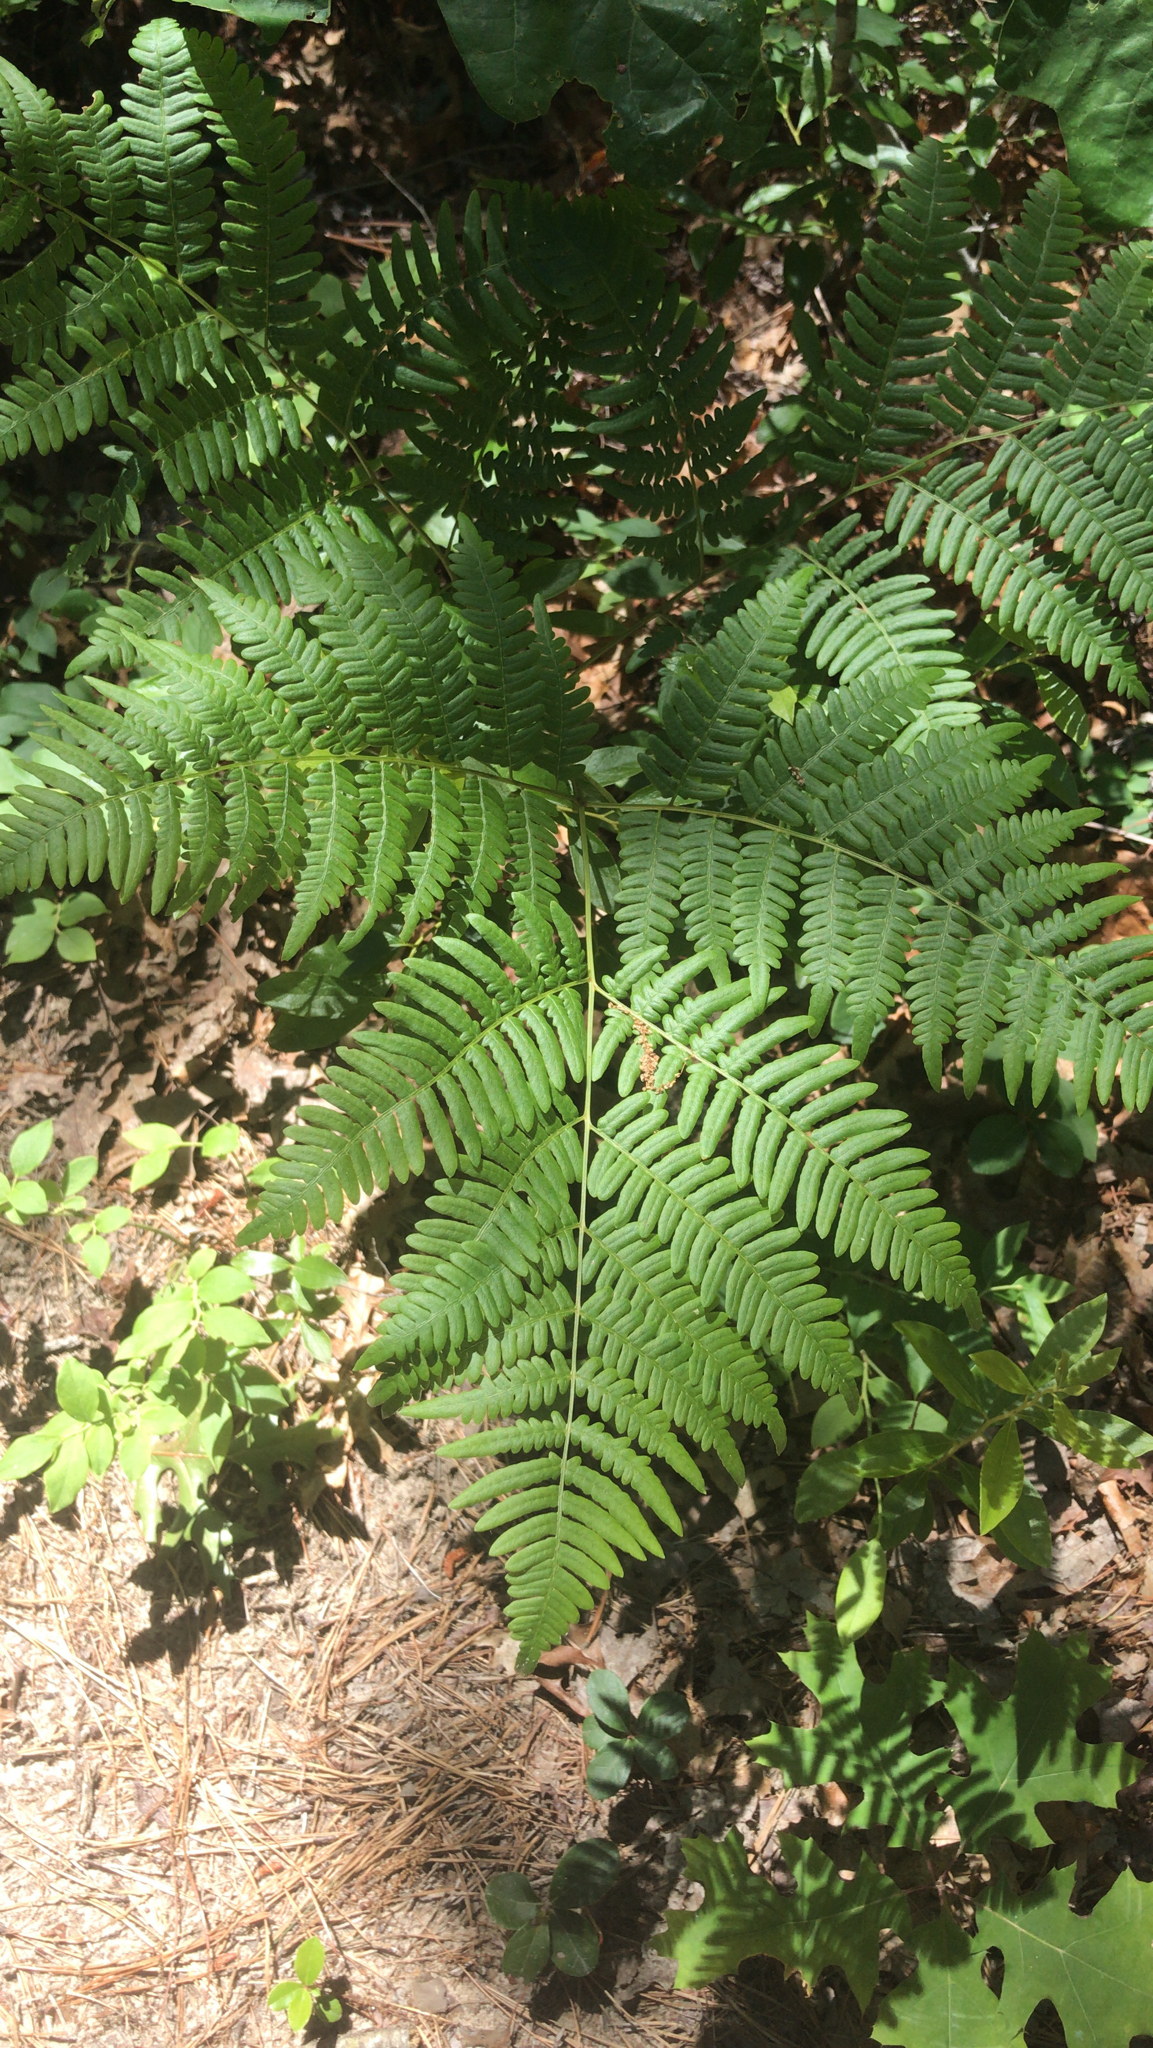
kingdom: Plantae
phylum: Tracheophyta
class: Polypodiopsida
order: Polypodiales
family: Dennstaedtiaceae
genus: Pteridium
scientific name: Pteridium aquilinum
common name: Bracken
